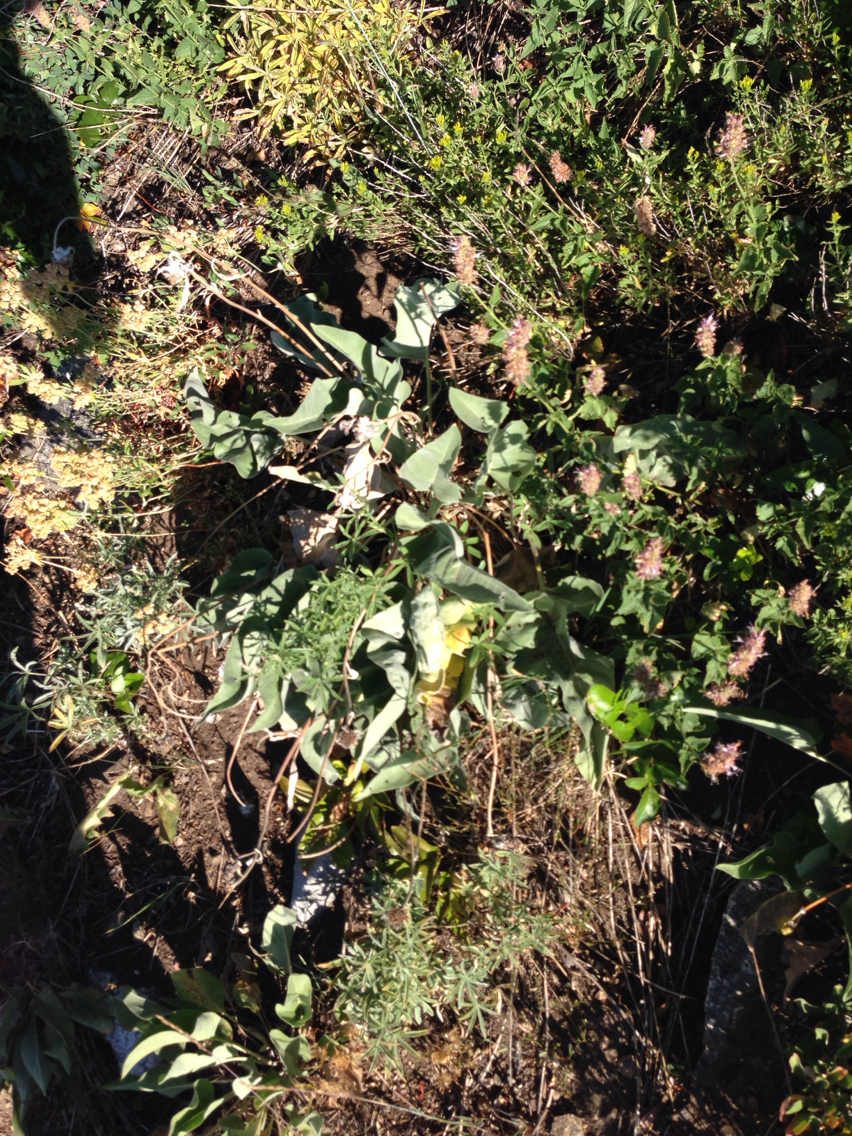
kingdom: Plantae
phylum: Tracheophyta
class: Magnoliopsida
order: Asterales
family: Asteraceae
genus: Wyethia
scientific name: Wyethia sagittata
